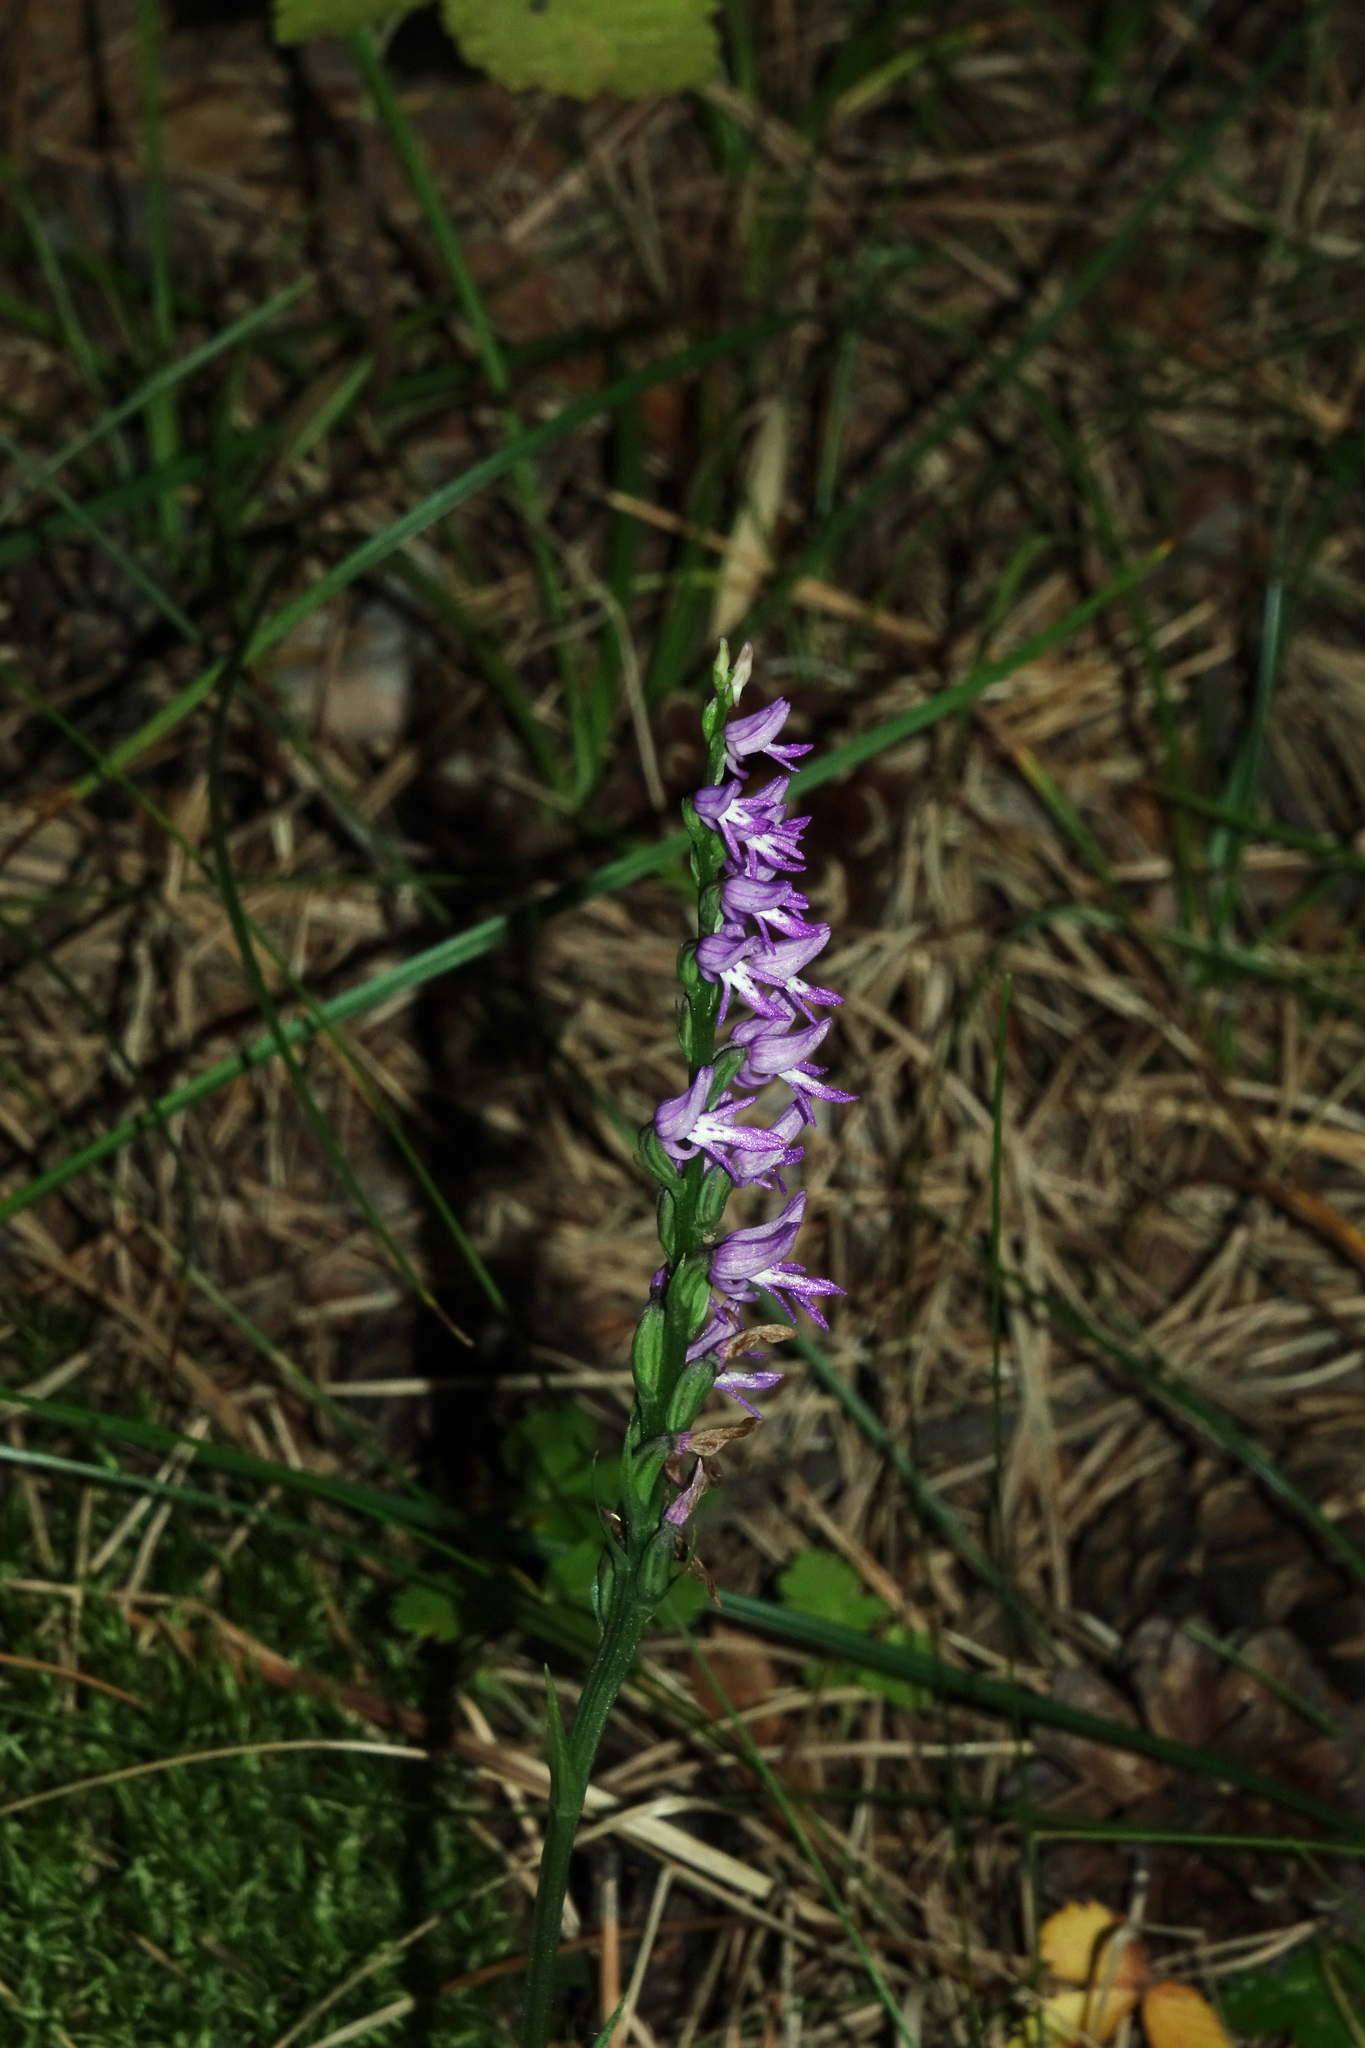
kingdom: Plantae
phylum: Tracheophyta
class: Liliopsida
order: Asparagales
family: Orchidaceae
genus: Hemipilia
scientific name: Hemipilia cucullata
